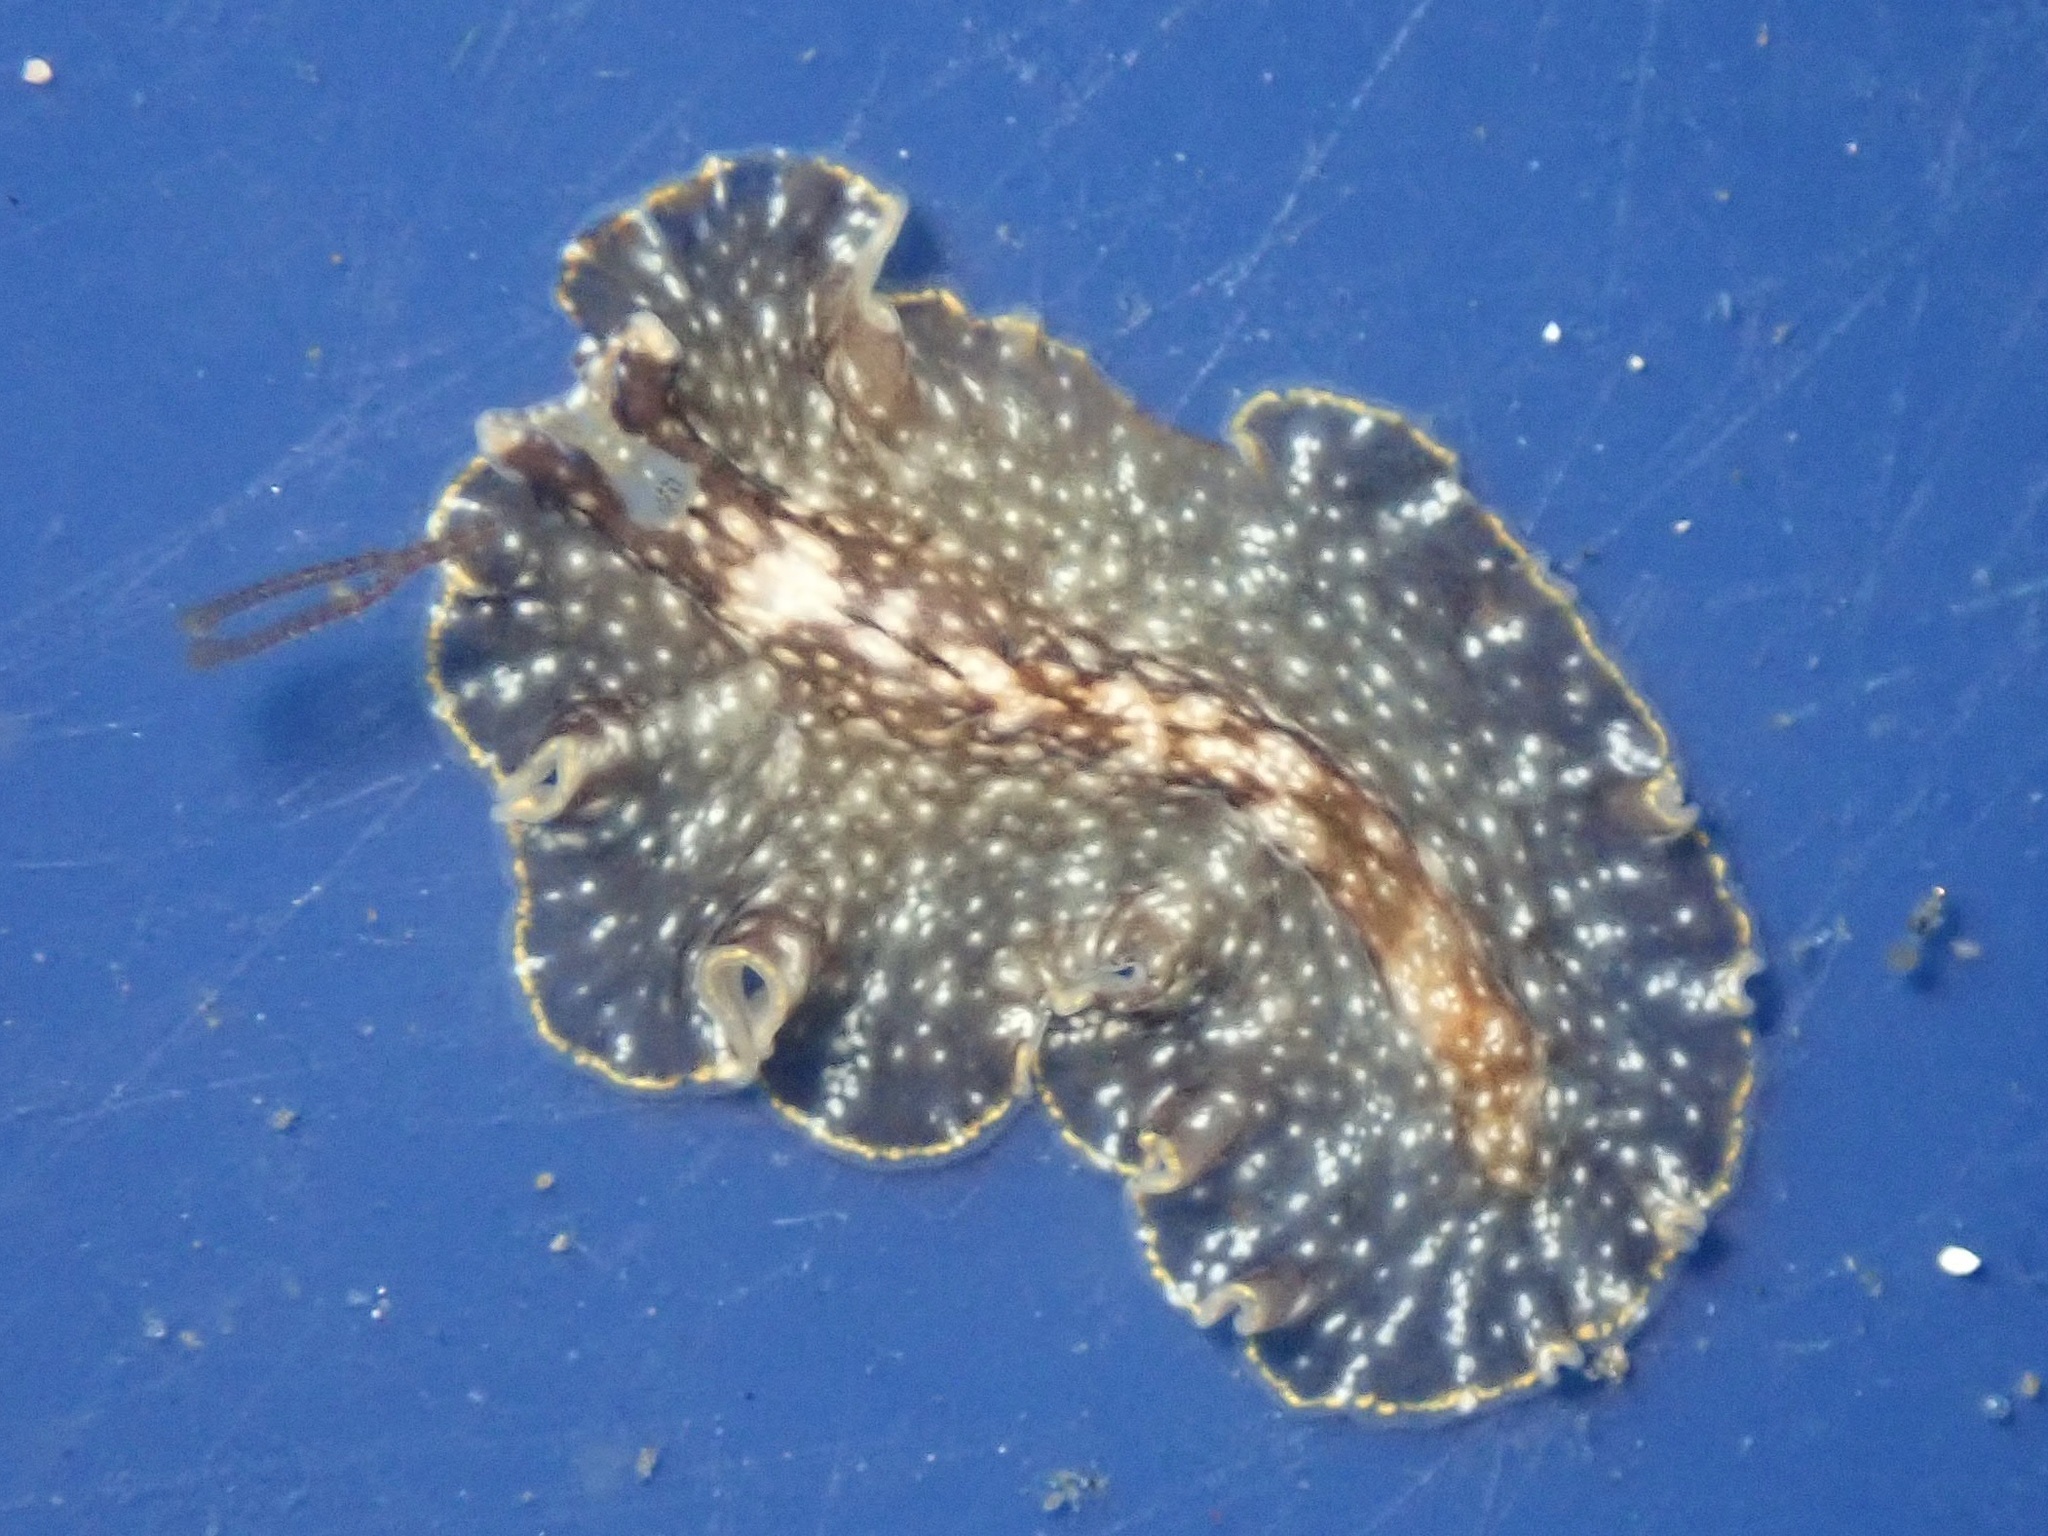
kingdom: Animalia
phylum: Platyhelminthes
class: Turbellaria
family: Pseudocerotidae
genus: Pseudoceros
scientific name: Pseudoceros mexicanus
